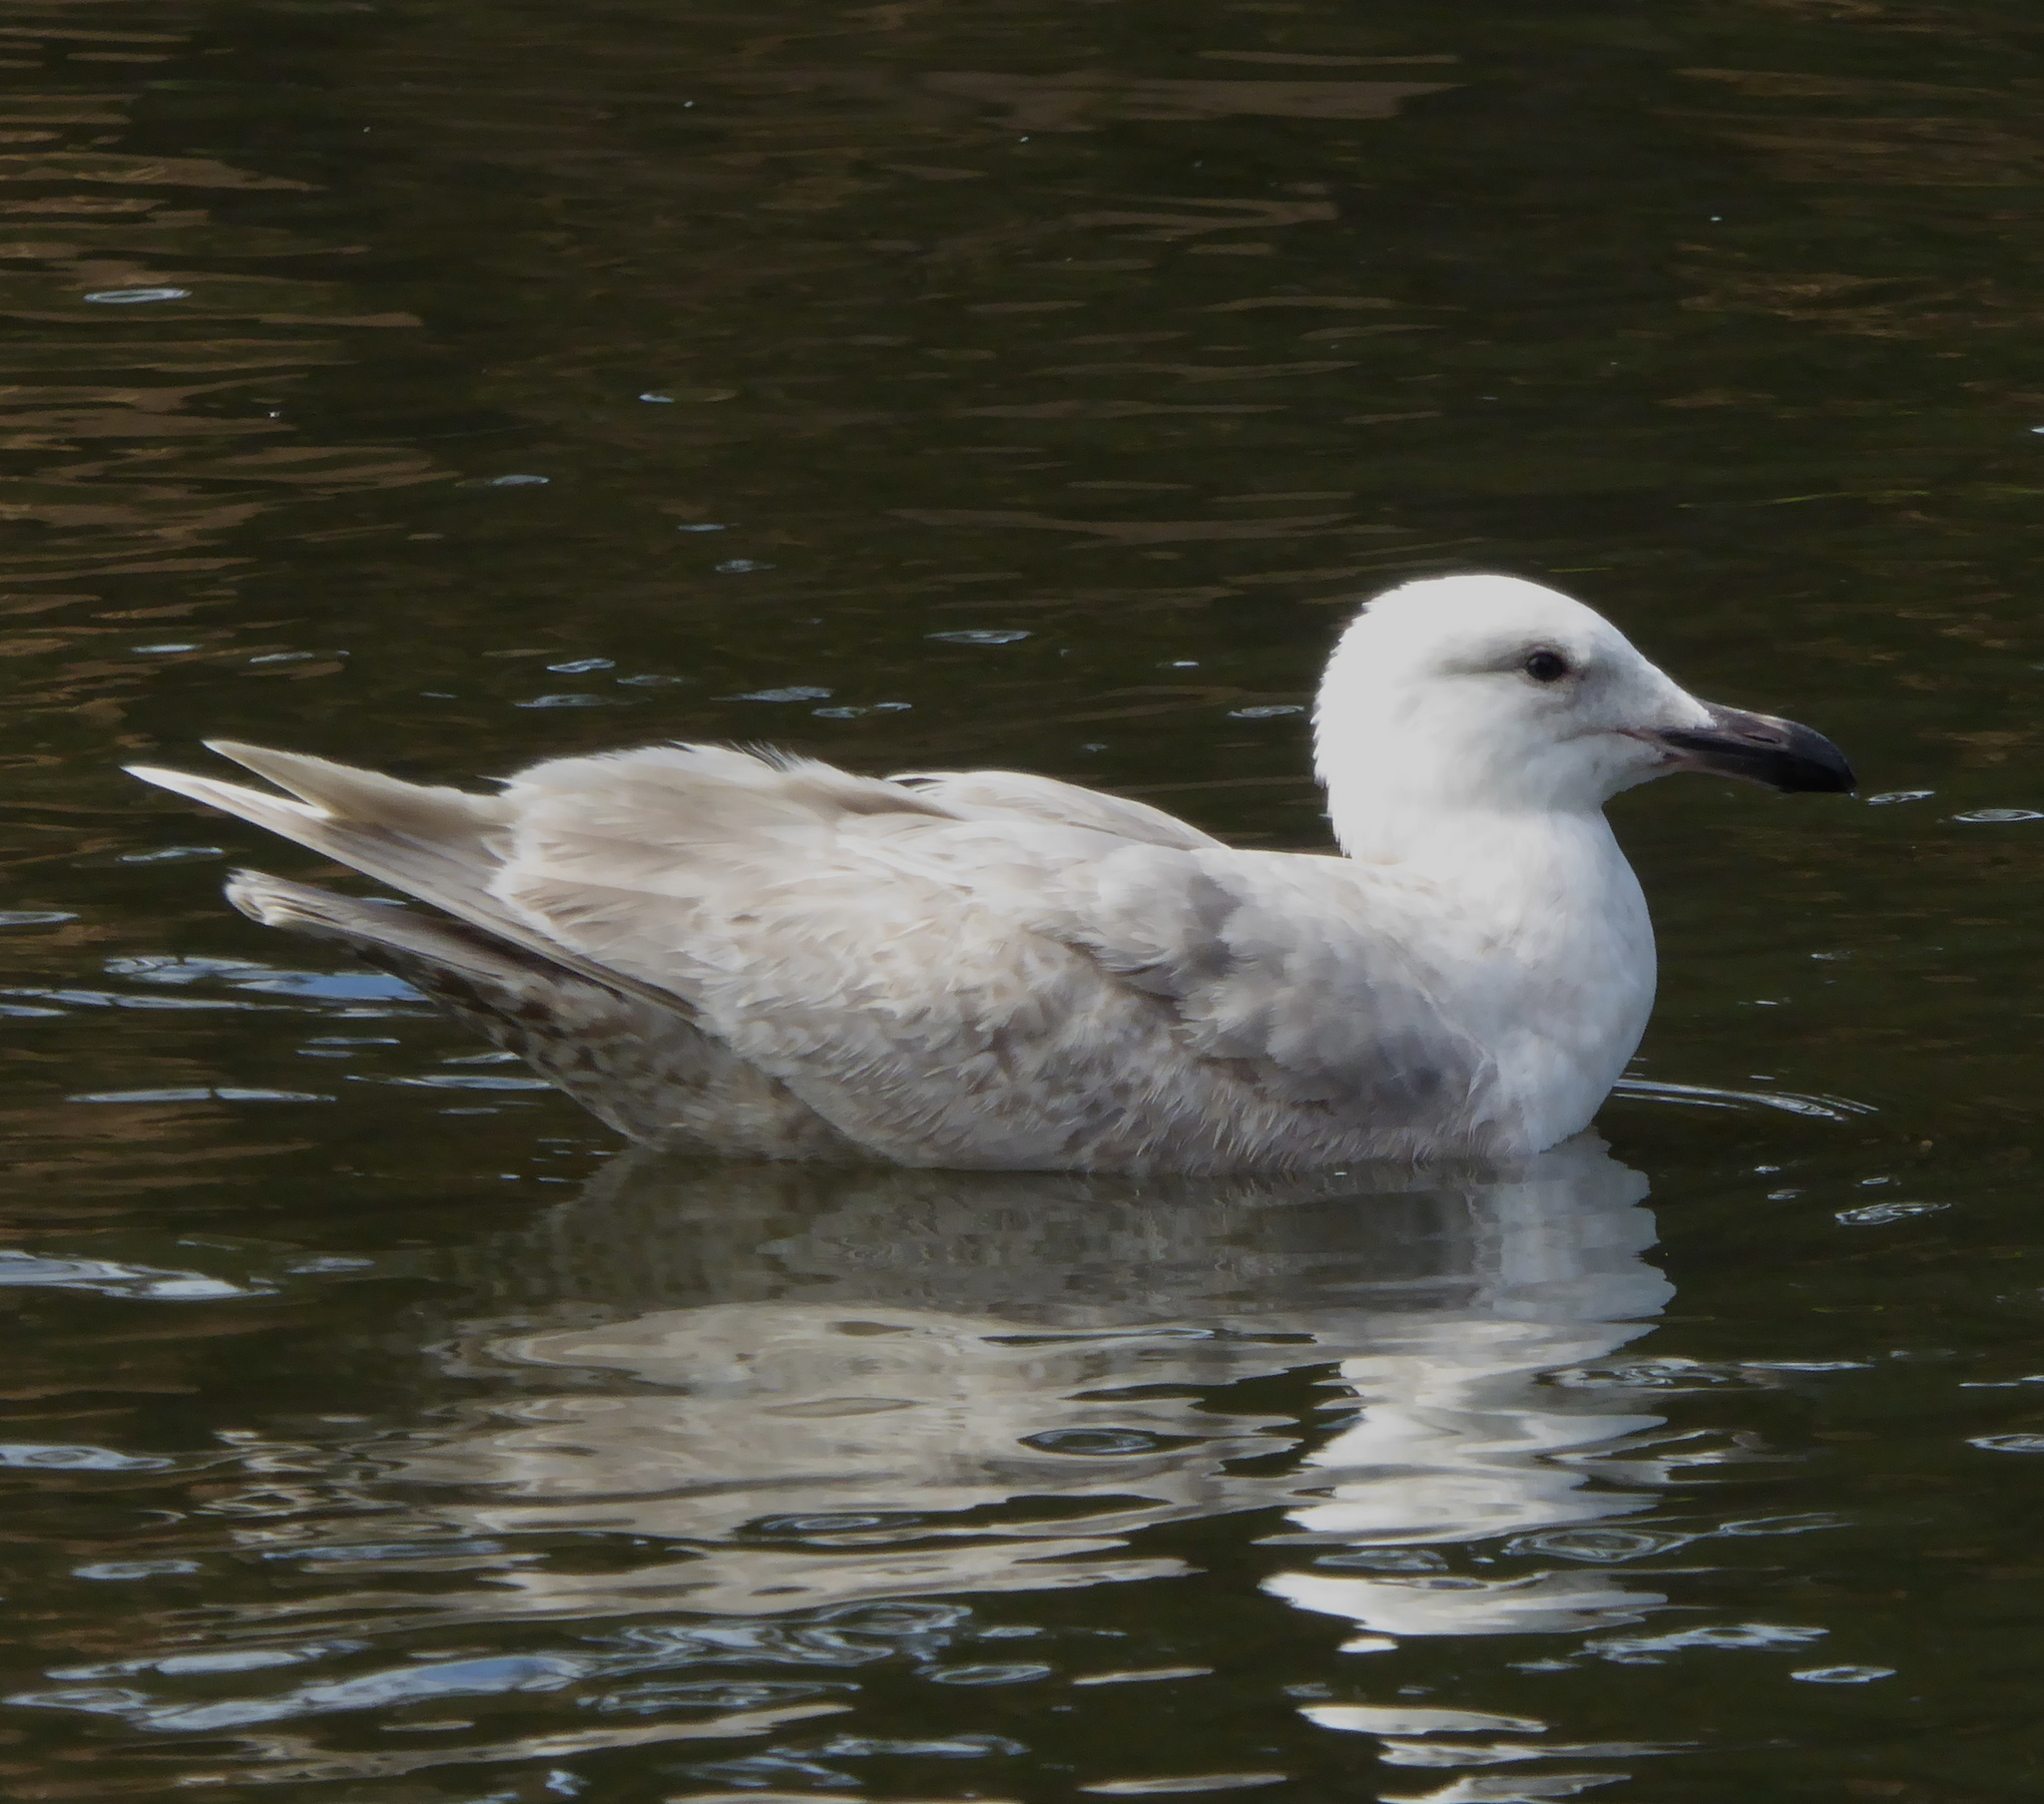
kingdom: Animalia
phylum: Chordata
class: Aves
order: Charadriiformes
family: Laridae
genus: Larus
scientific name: Larus glaucescens
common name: Glaucous-winged gull
